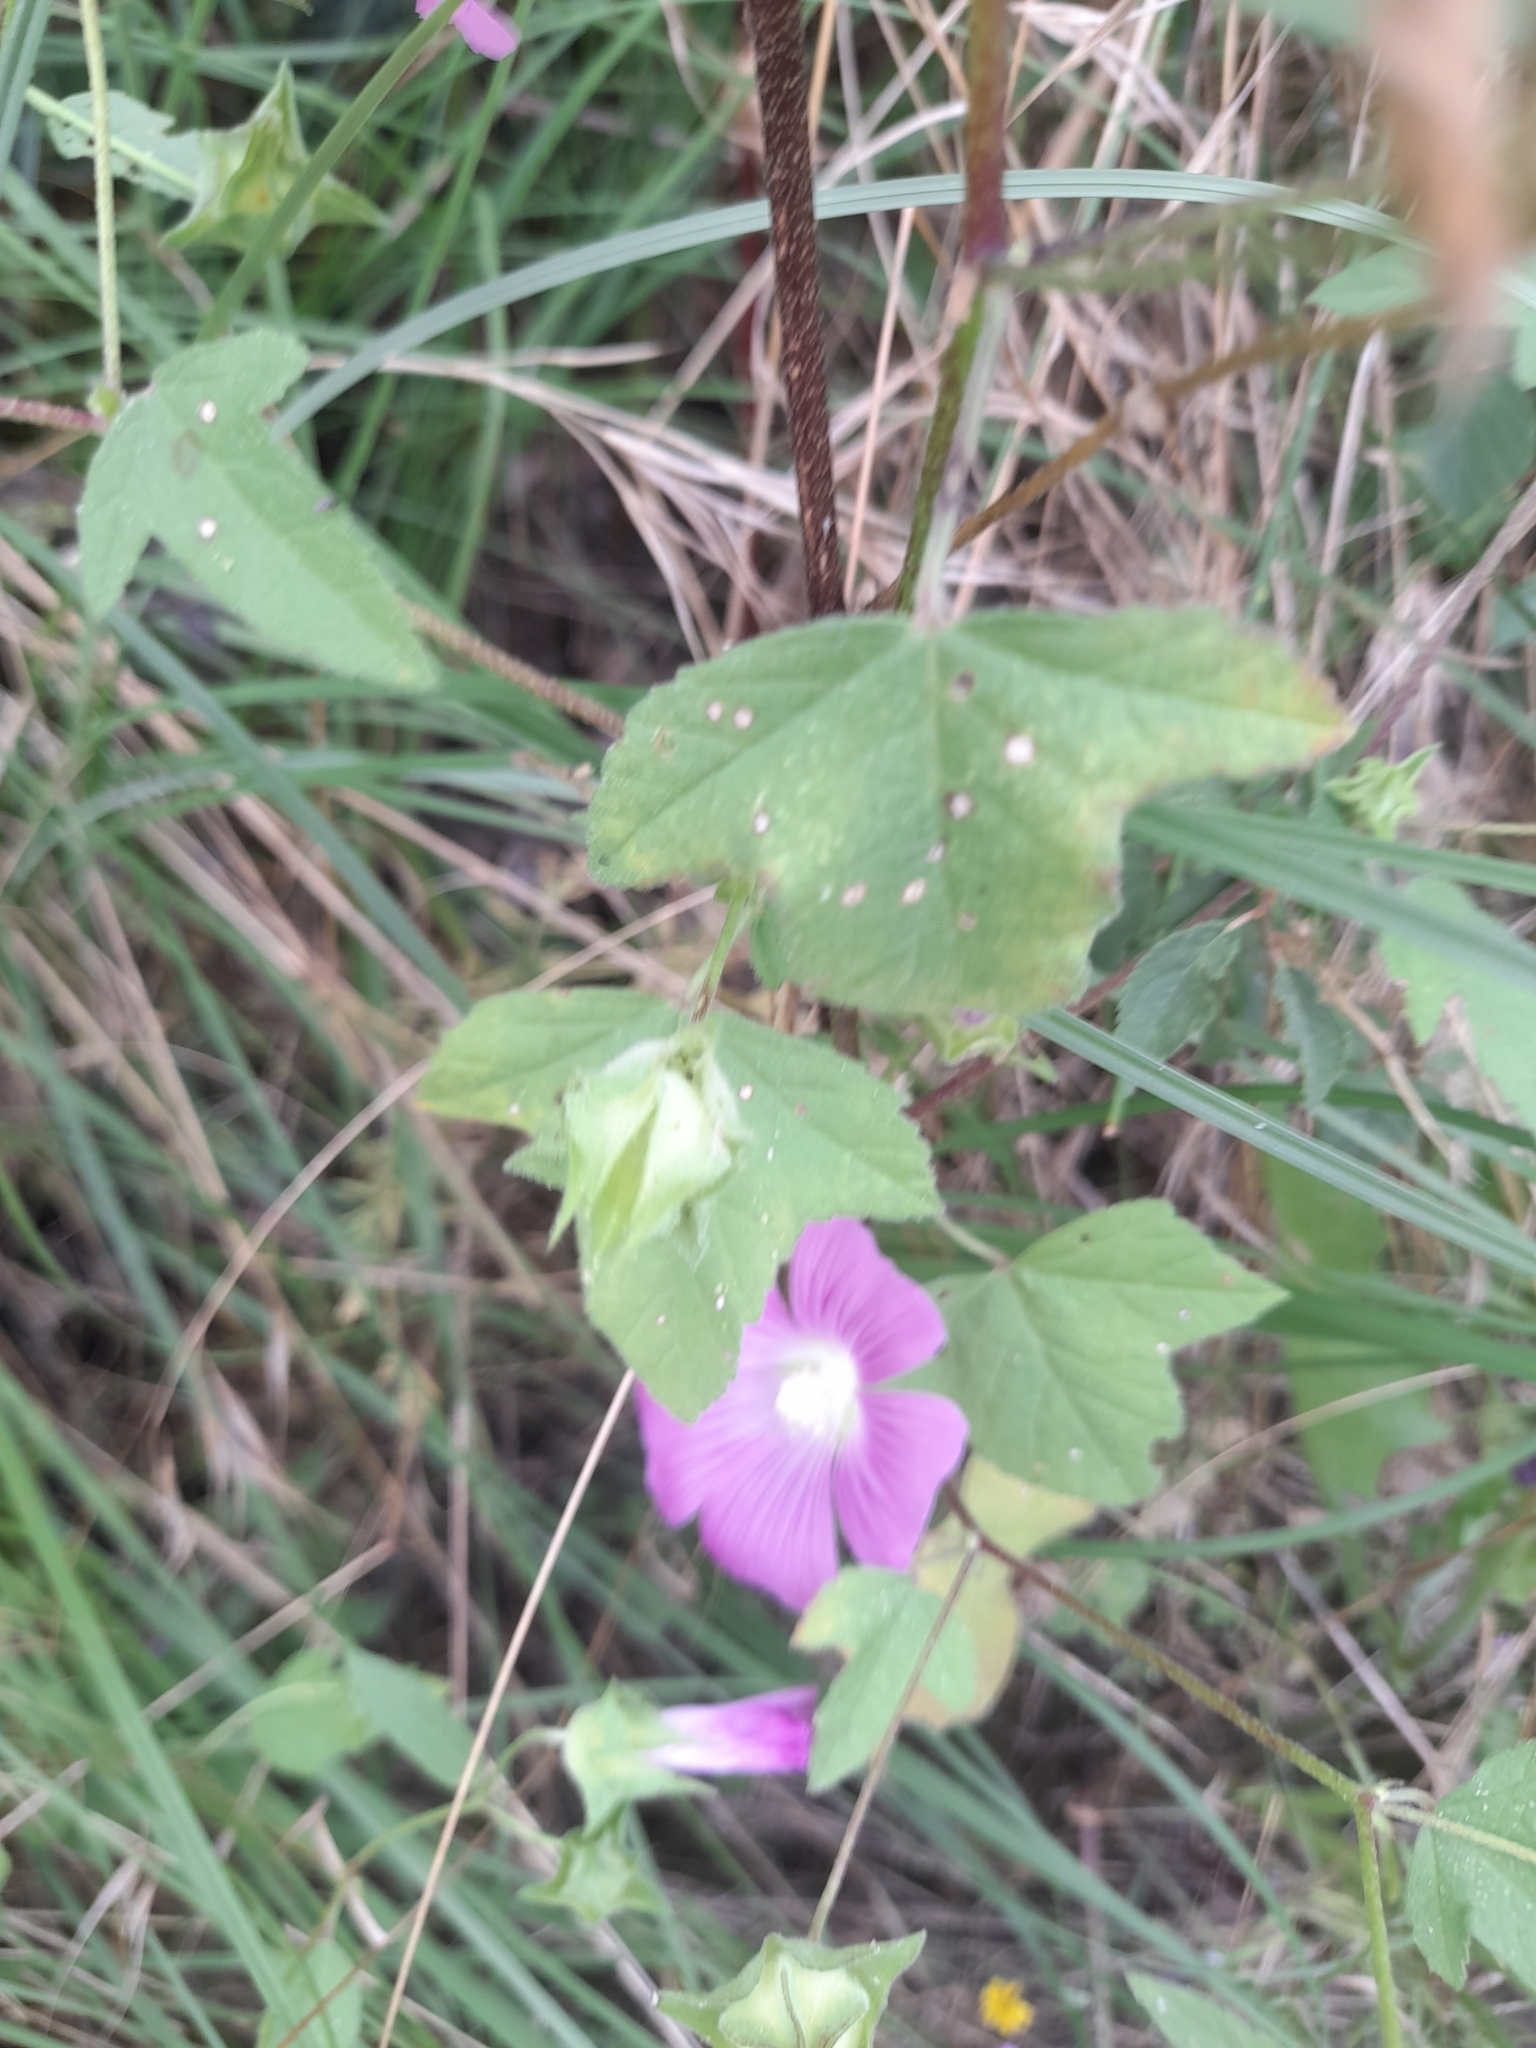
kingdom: Plantae
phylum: Tracheophyta
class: Magnoliopsida
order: Malvales
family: Malvaceae
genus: Malva
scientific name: Malva punctata
